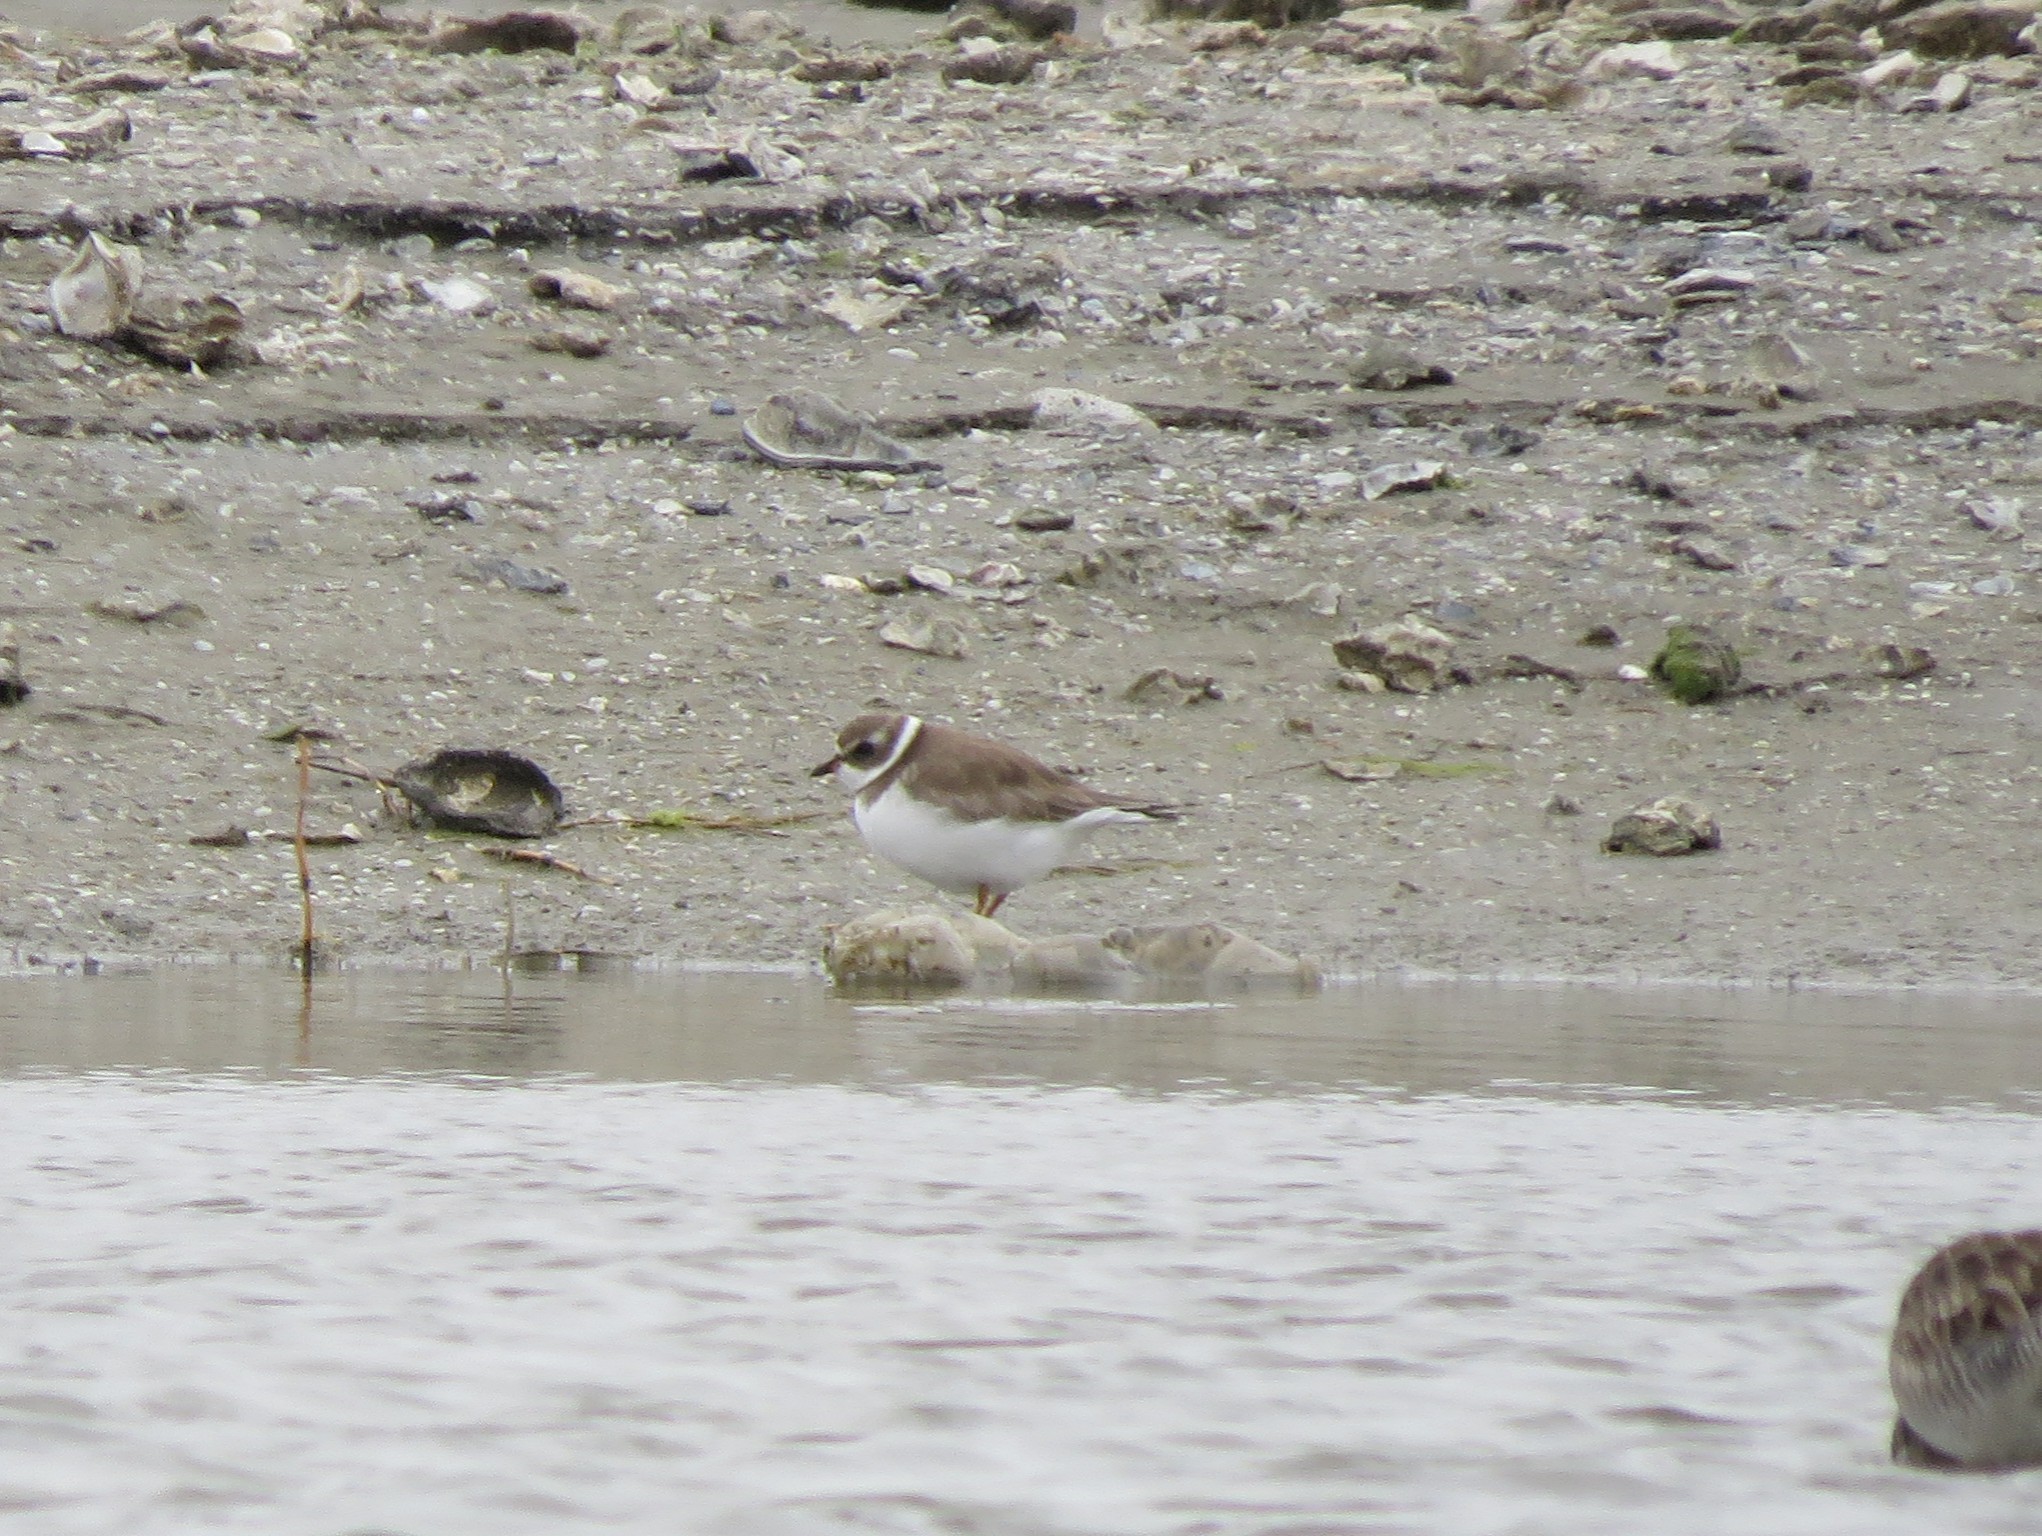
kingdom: Animalia
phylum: Chordata
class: Aves
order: Charadriiformes
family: Charadriidae
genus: Charadrius
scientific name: Charadrius semipalmatus
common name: Semipalmated plover
